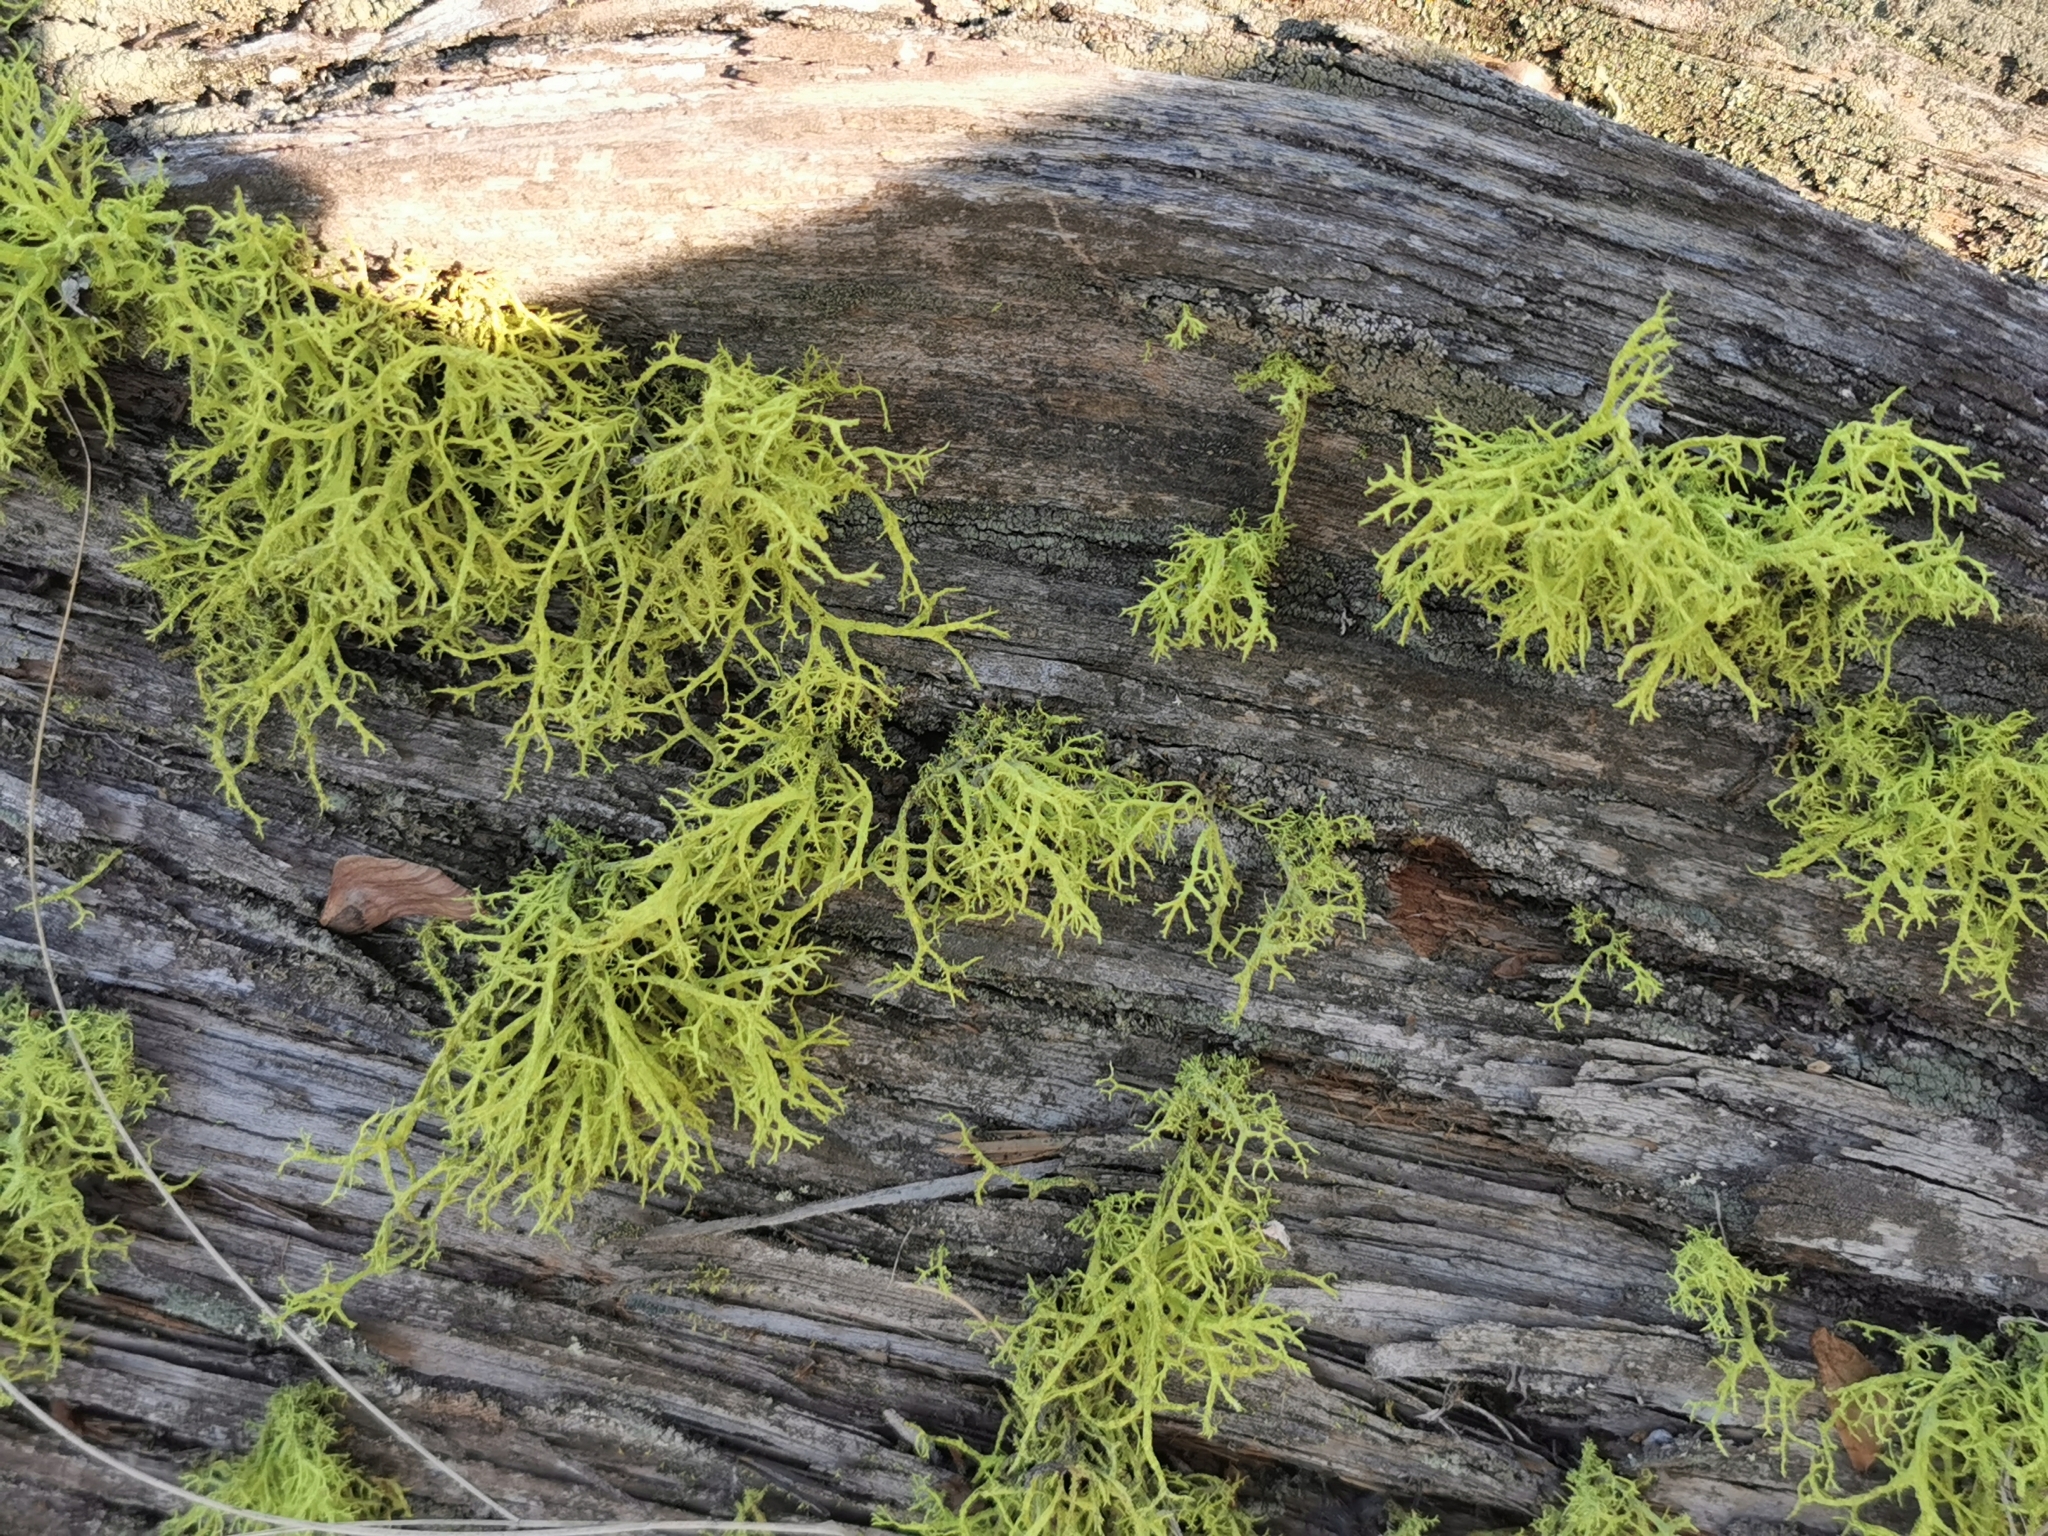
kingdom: Fungi
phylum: Ascomycota
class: Lecanoromycetes
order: Lecanorales
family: Parmeliaceae
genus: Letharia
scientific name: Letharia vulpina
